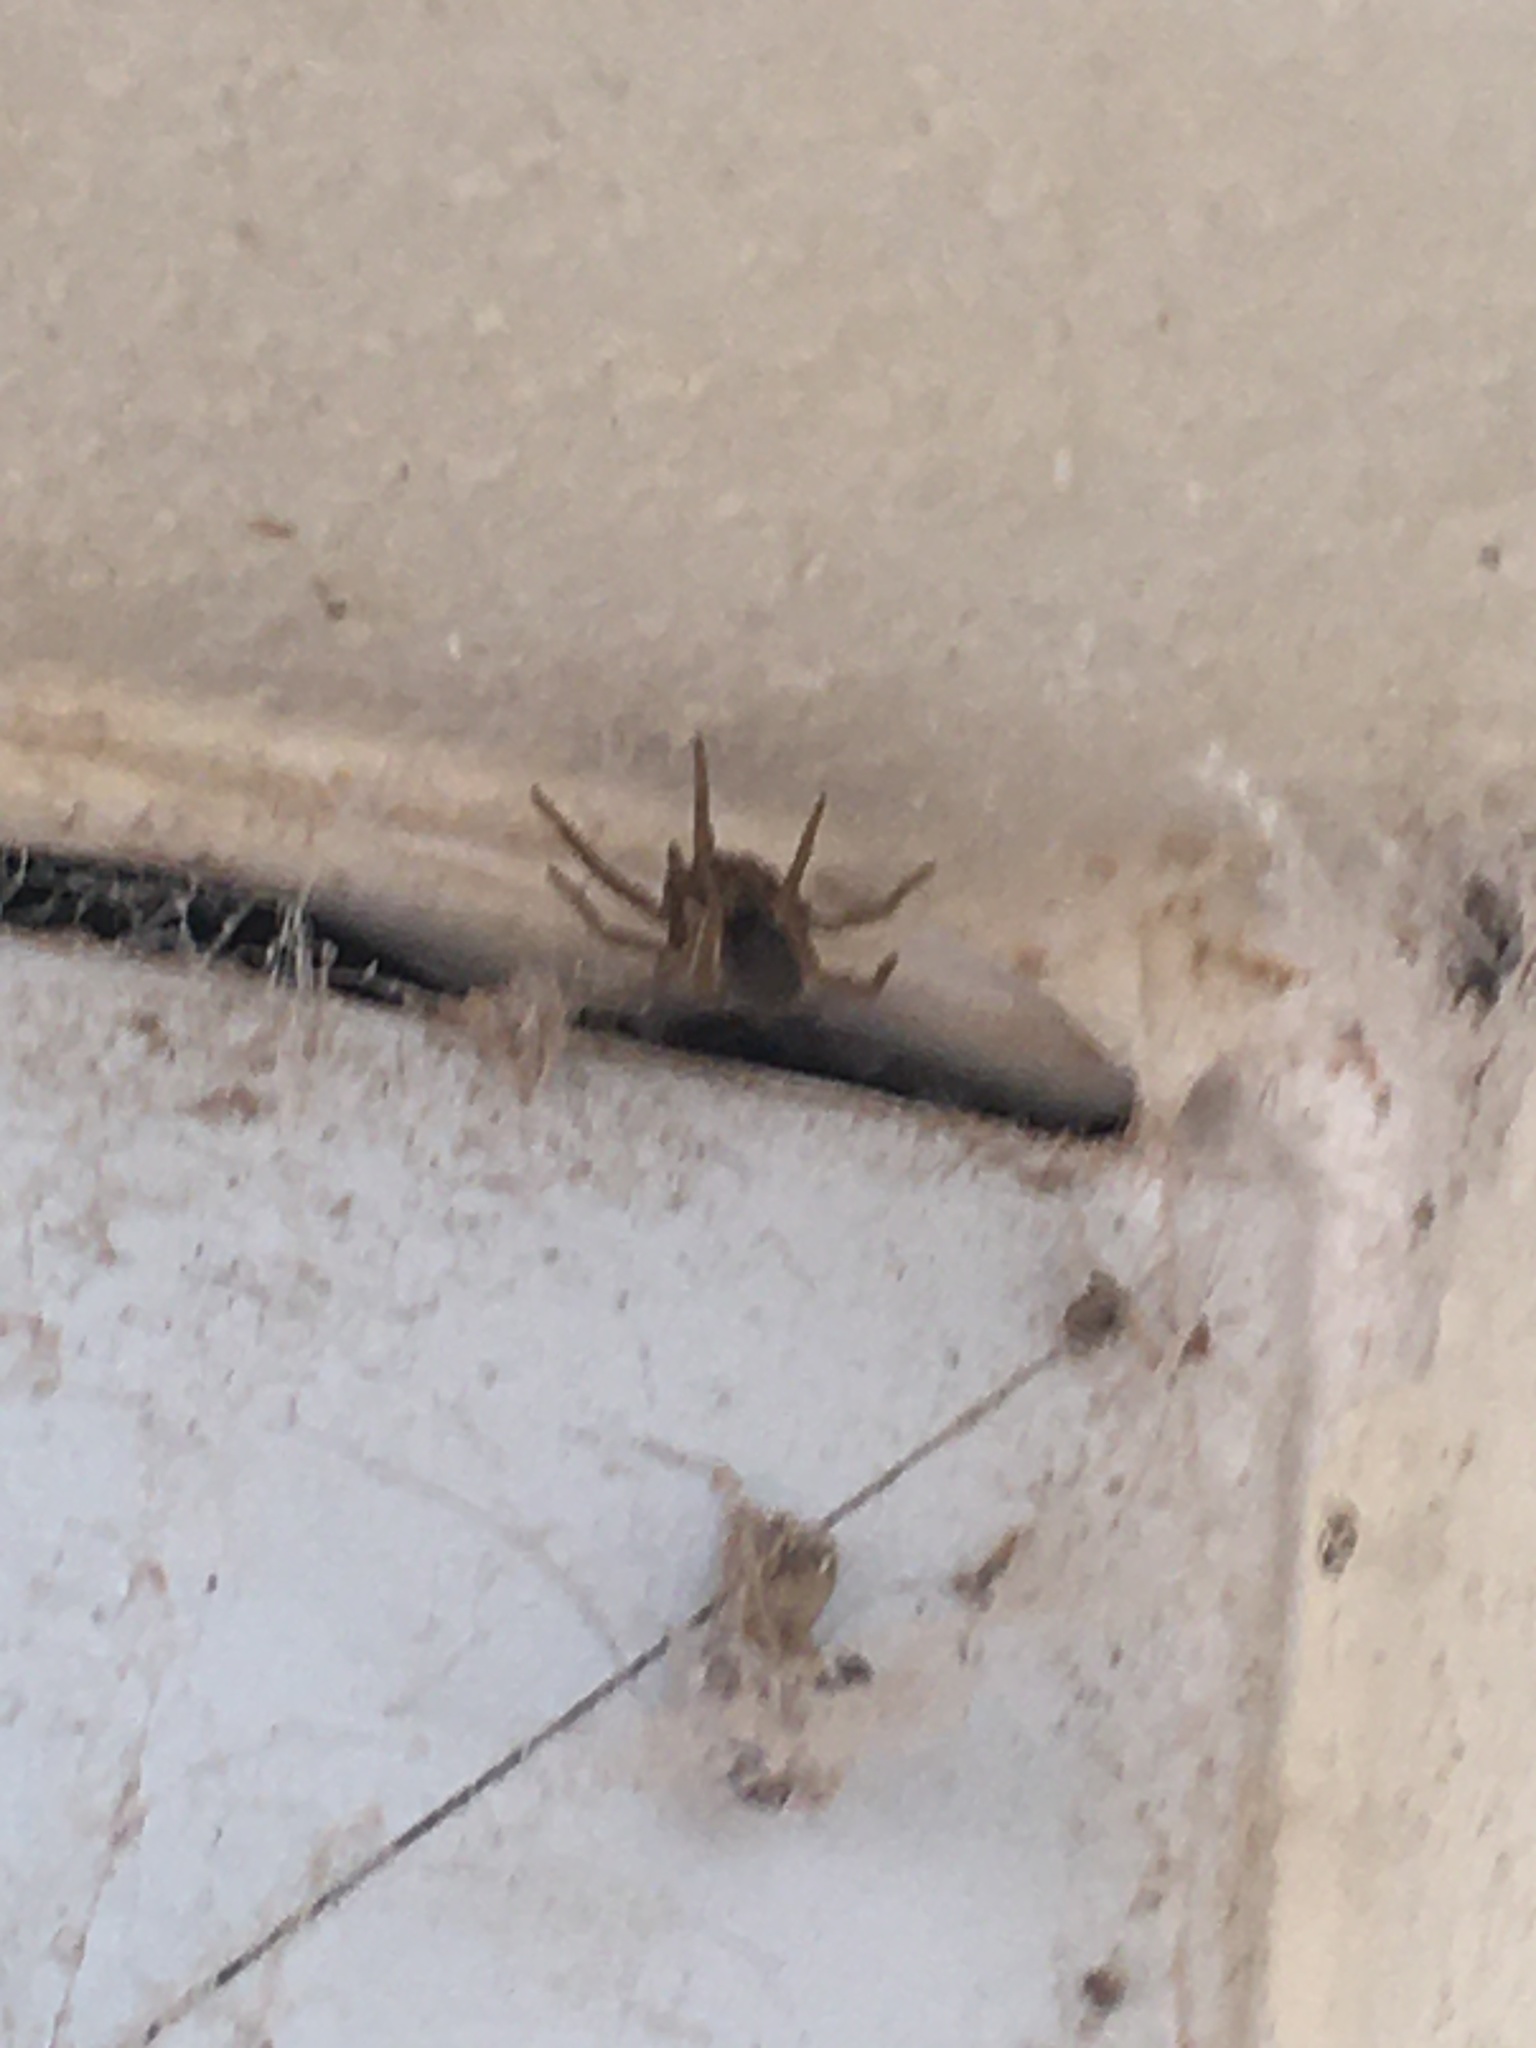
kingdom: Animalia
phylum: Arthropoda
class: Arachnida
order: Araneae
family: Filistatidae
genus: Kukulcania
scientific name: Kukulcania hibernalis
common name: Crevice weaver
